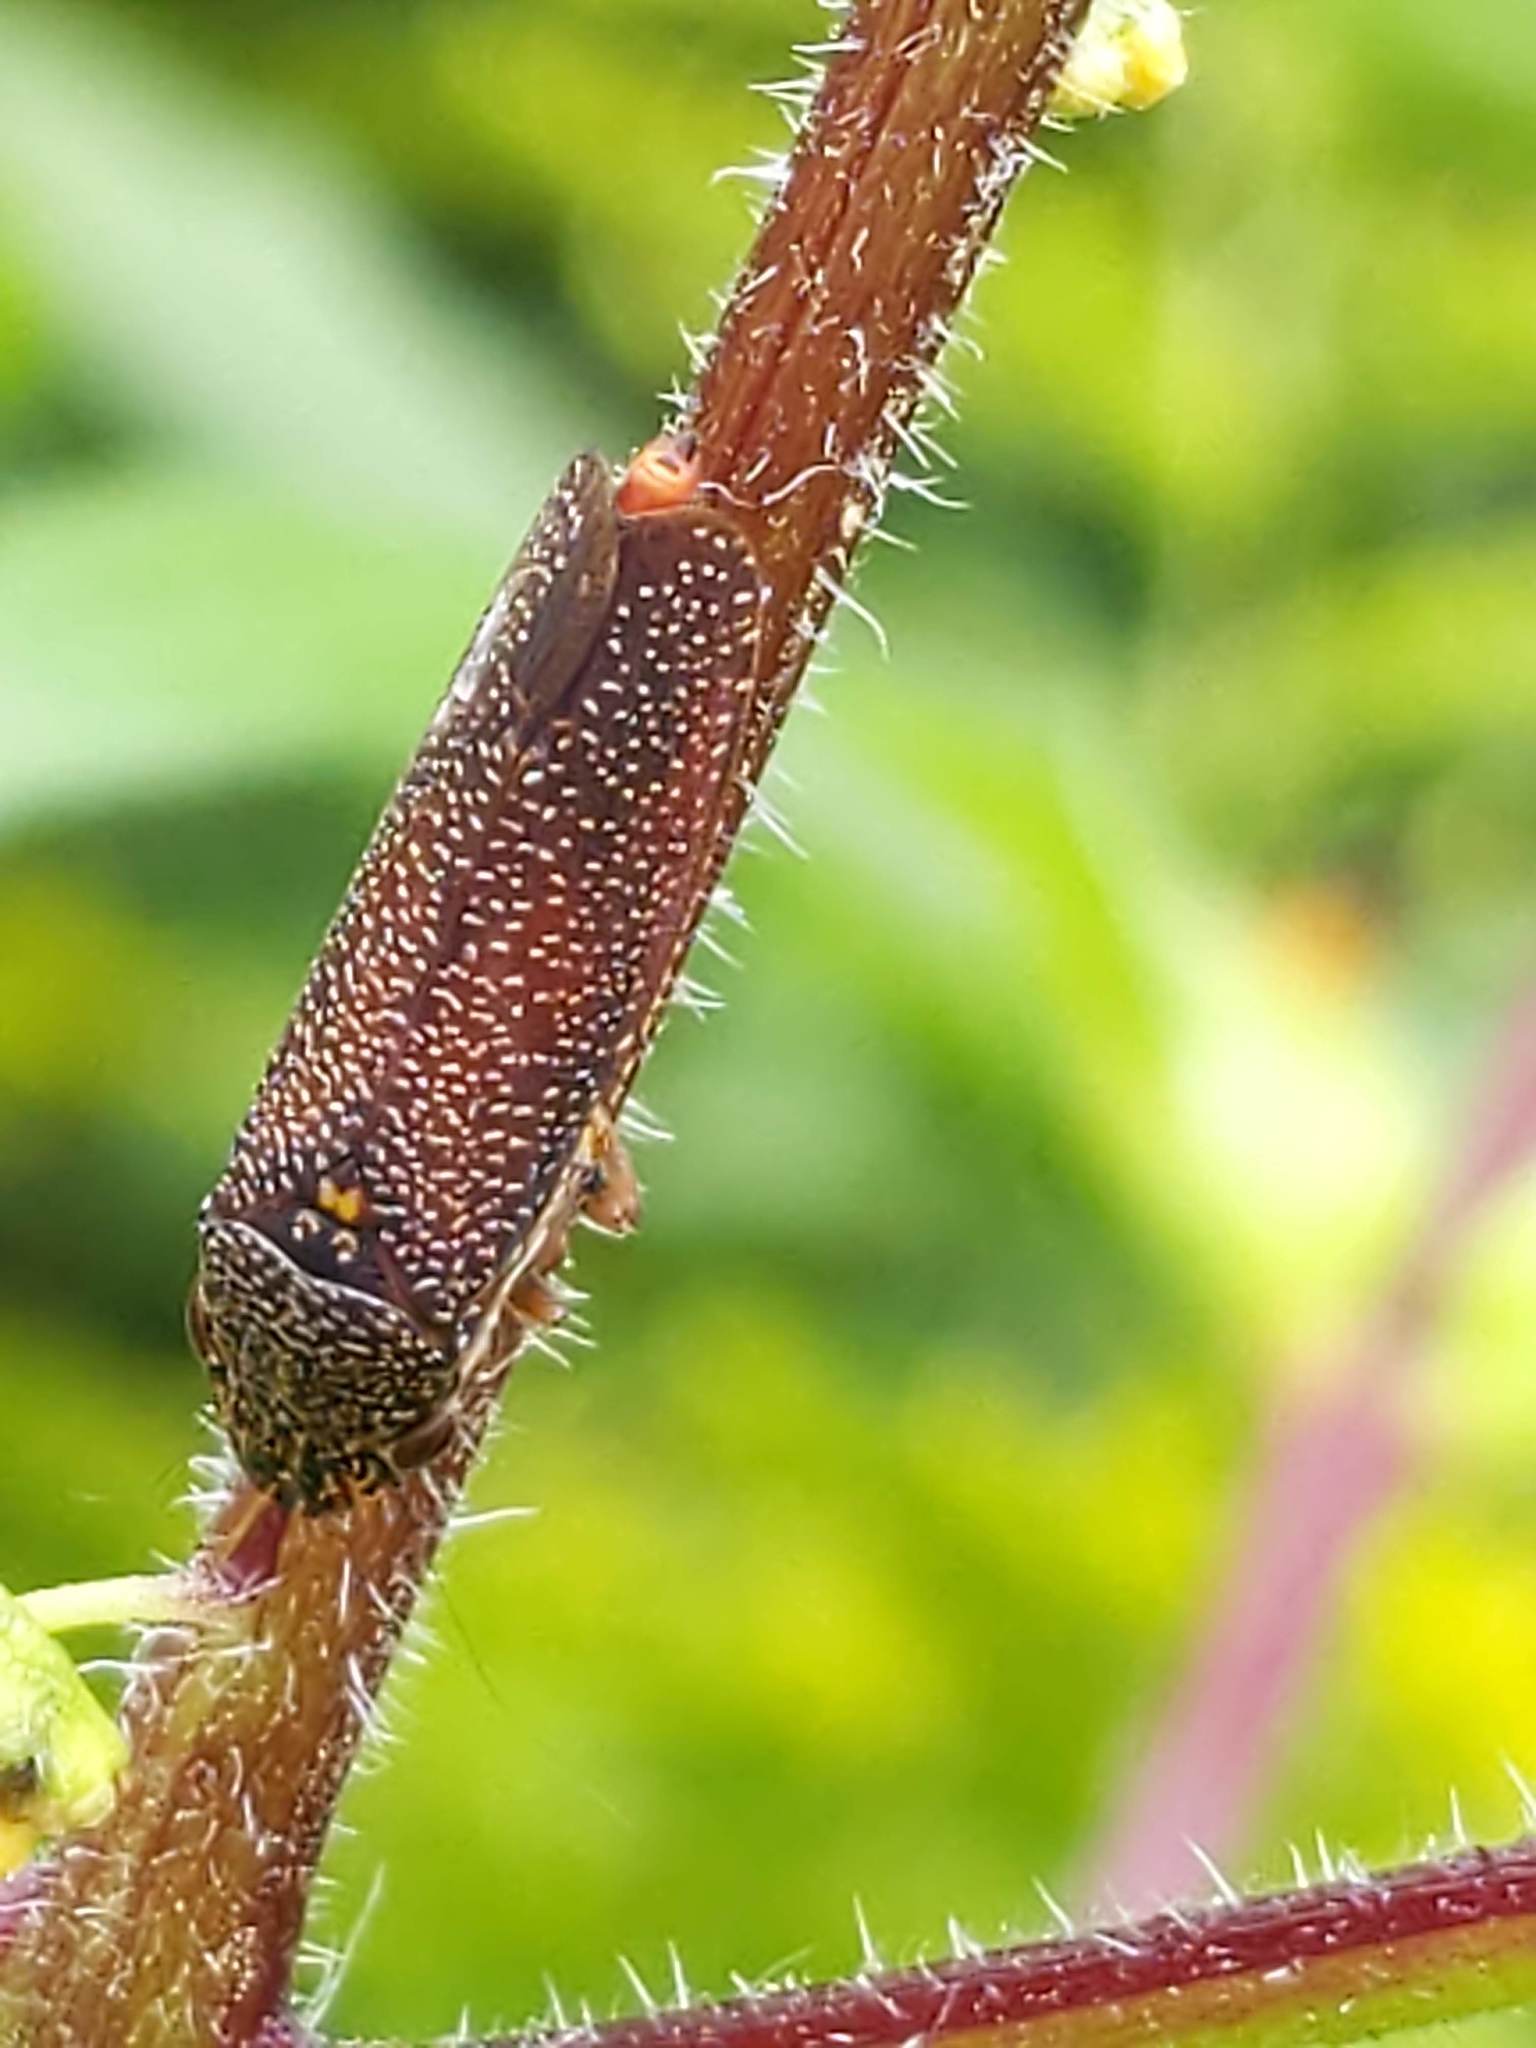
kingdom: Animalia
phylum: Arthropoda
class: Insecta
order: Hemiptera
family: Cicadellidae
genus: Paraulacizes
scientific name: Paraulacizes irrorata
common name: Speckled sharpshooter
